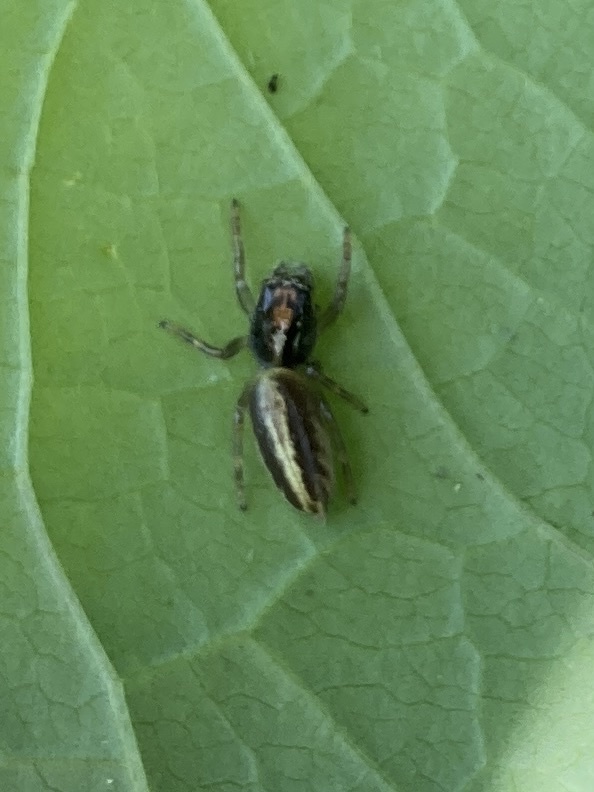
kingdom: Animalia
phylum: Arthropoda
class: Arachnida
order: Araneae
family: Salticidae
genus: Trite
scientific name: Trite planiceps
